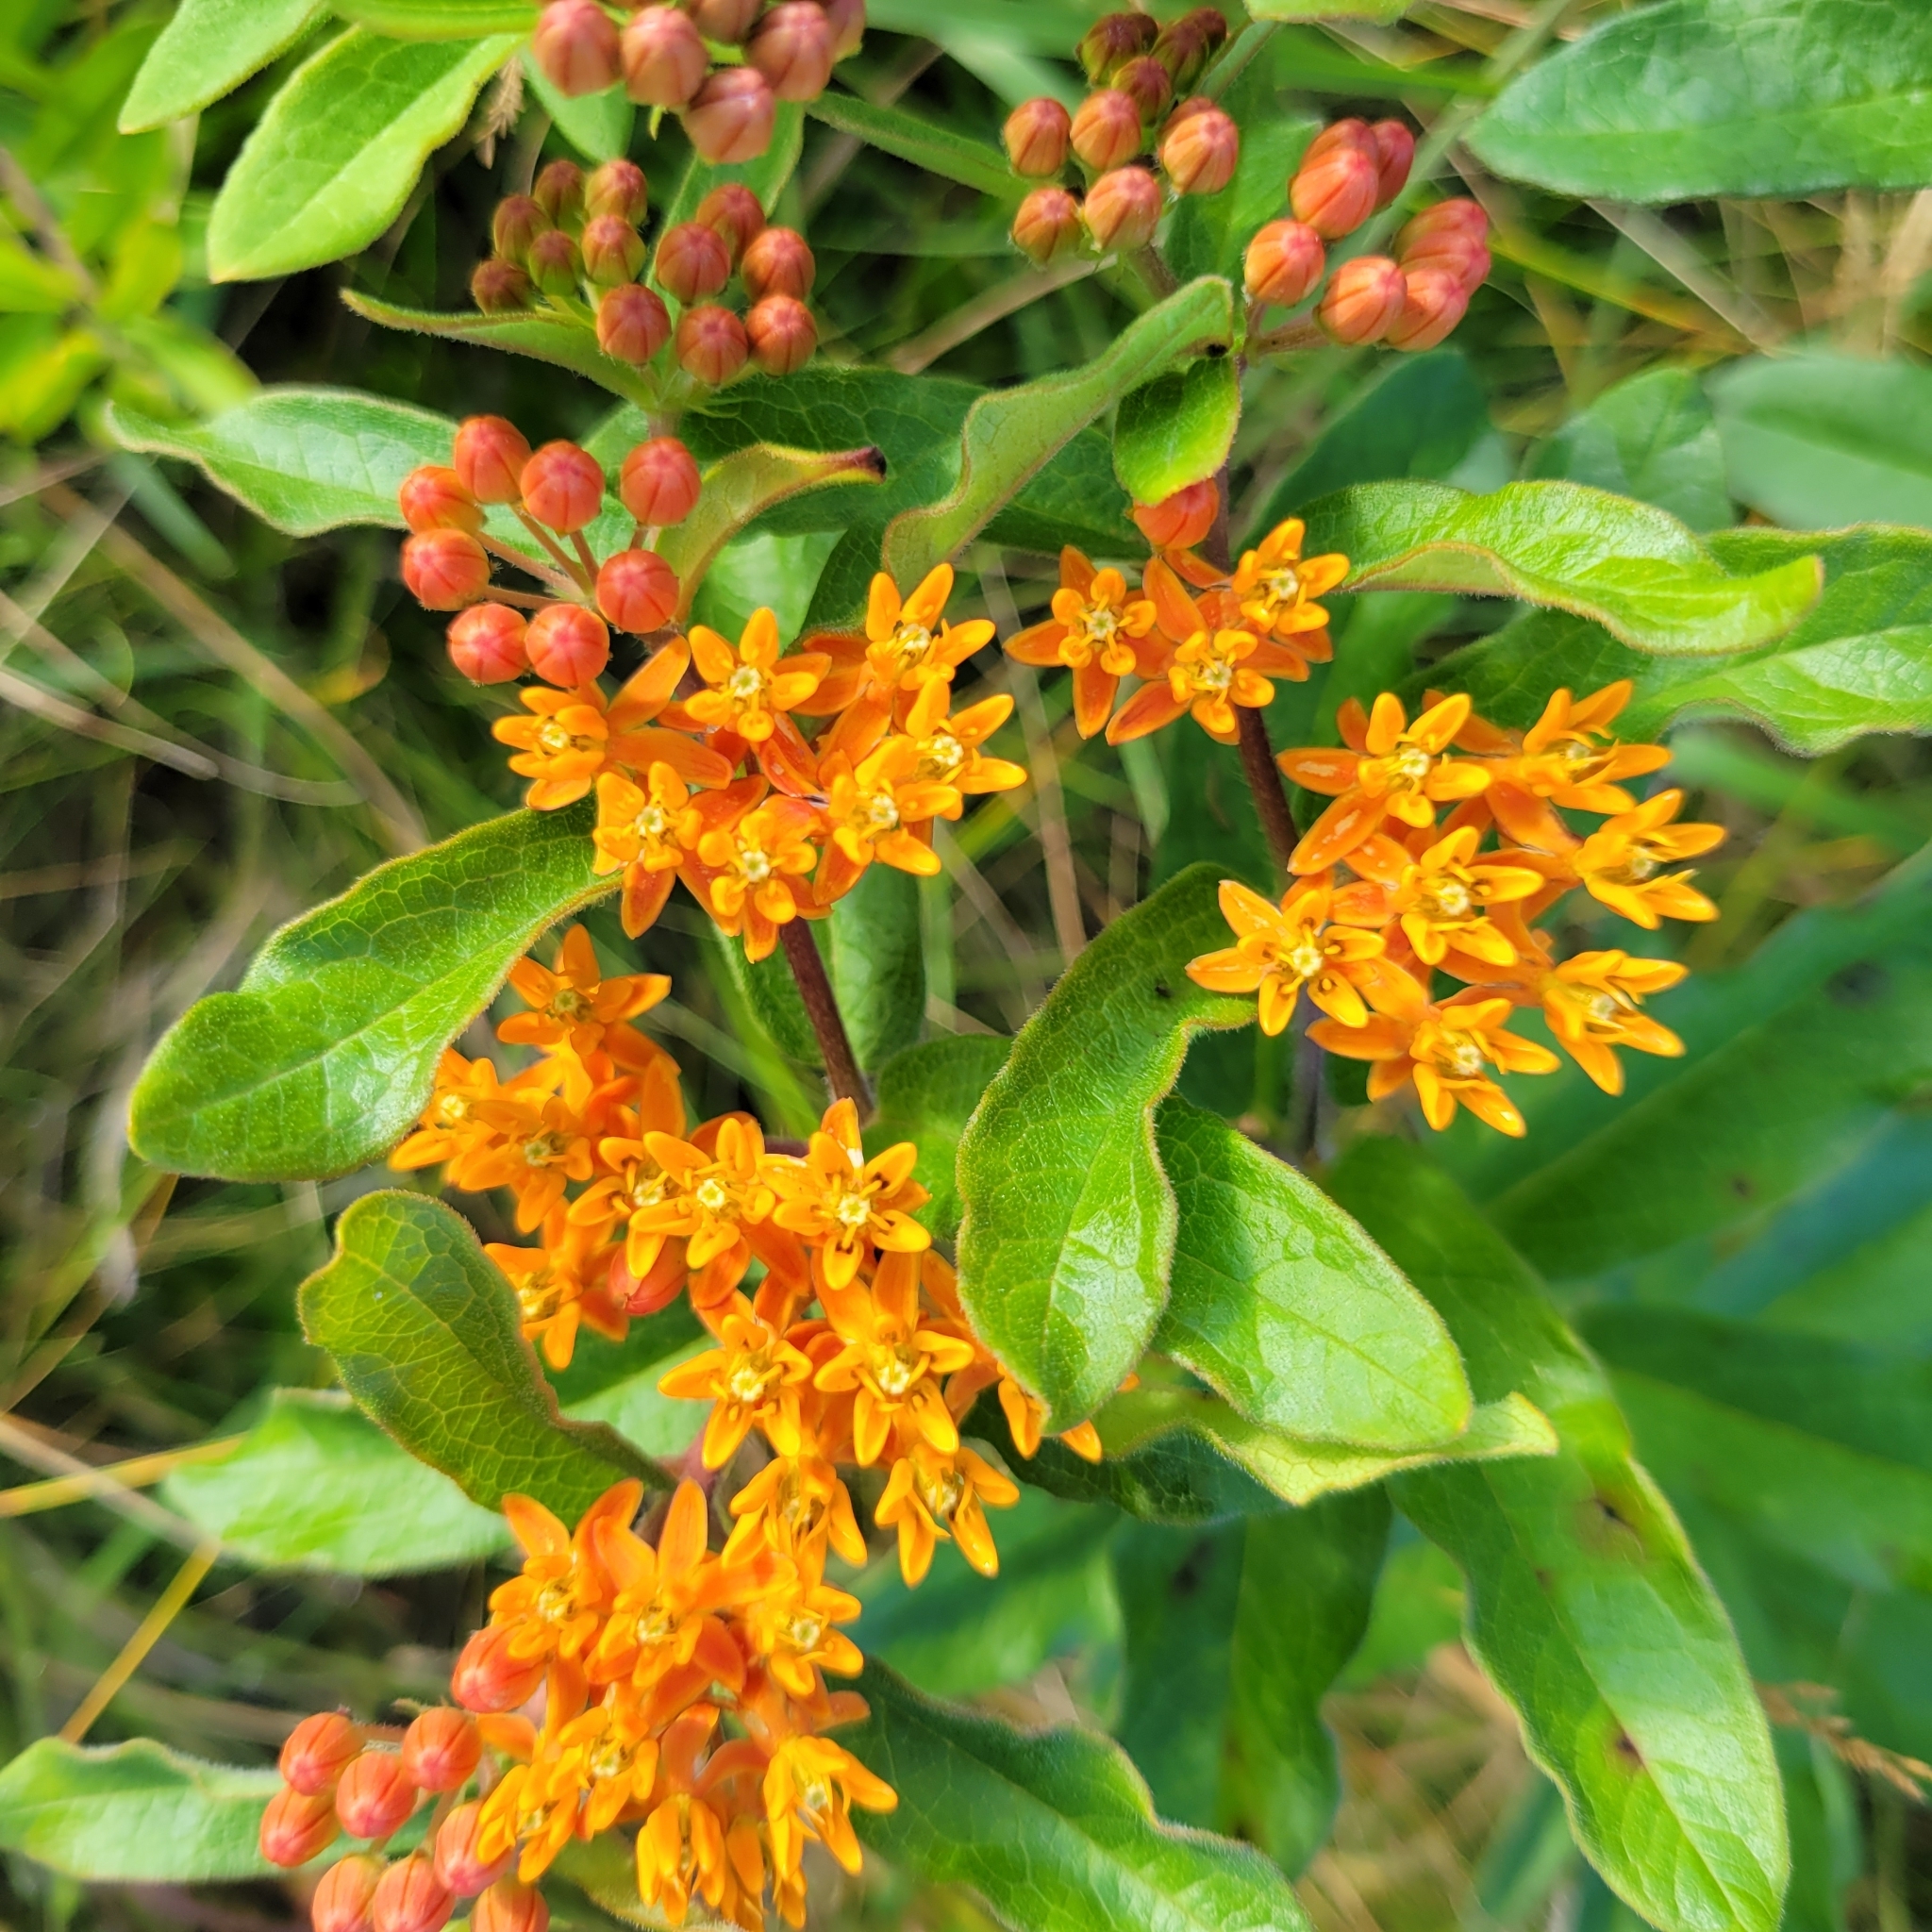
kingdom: Plantae
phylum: Tracheophyta
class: Magnoliopsida
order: Gentianales
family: Apocynaceae
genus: Asclepias
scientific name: Asclepias tuberosa
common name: Butterfly milkweed
